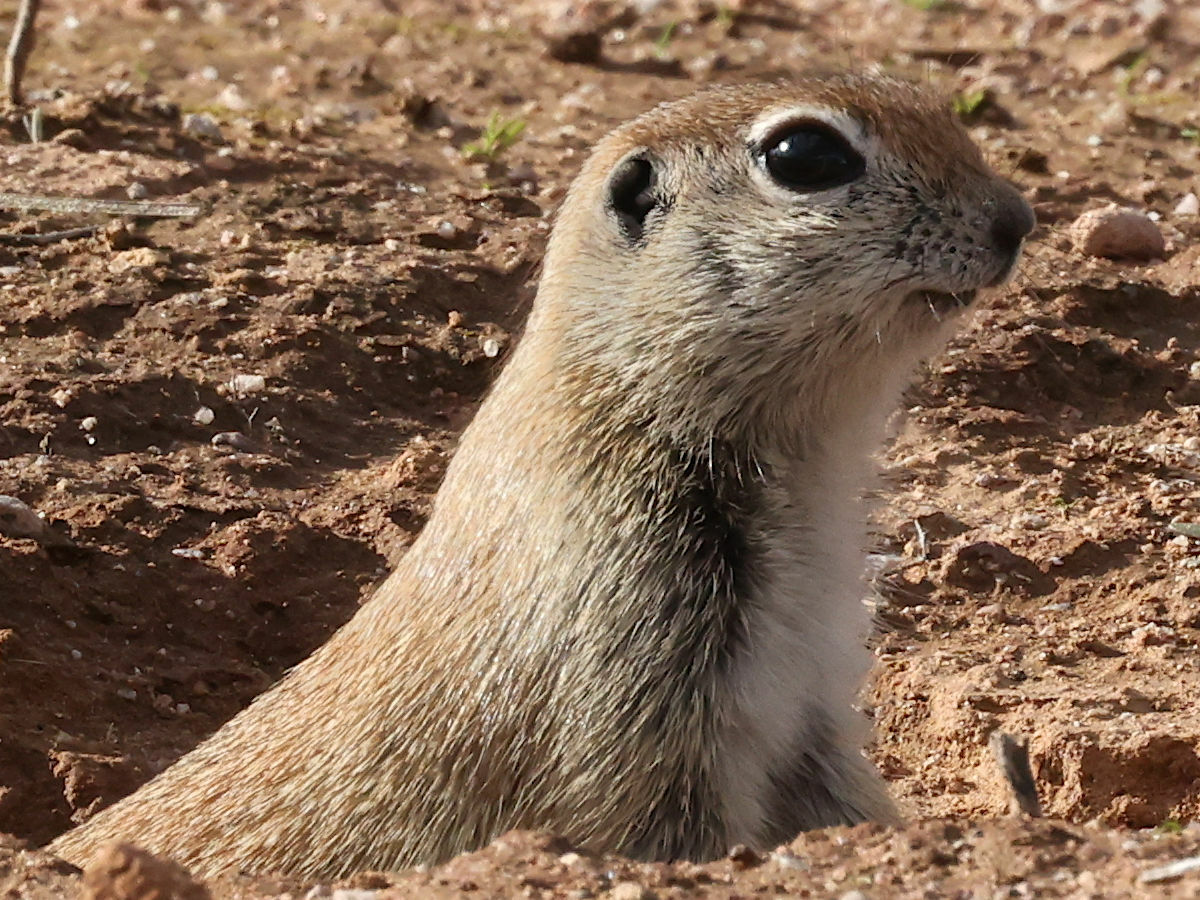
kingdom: Animalia
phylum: Chordata
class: Mammalia
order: Rodentia
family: Sciuridae
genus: Xerospermophilus
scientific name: Xerospermophilus tereticaudus
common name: Round-tailed ground squirrel
